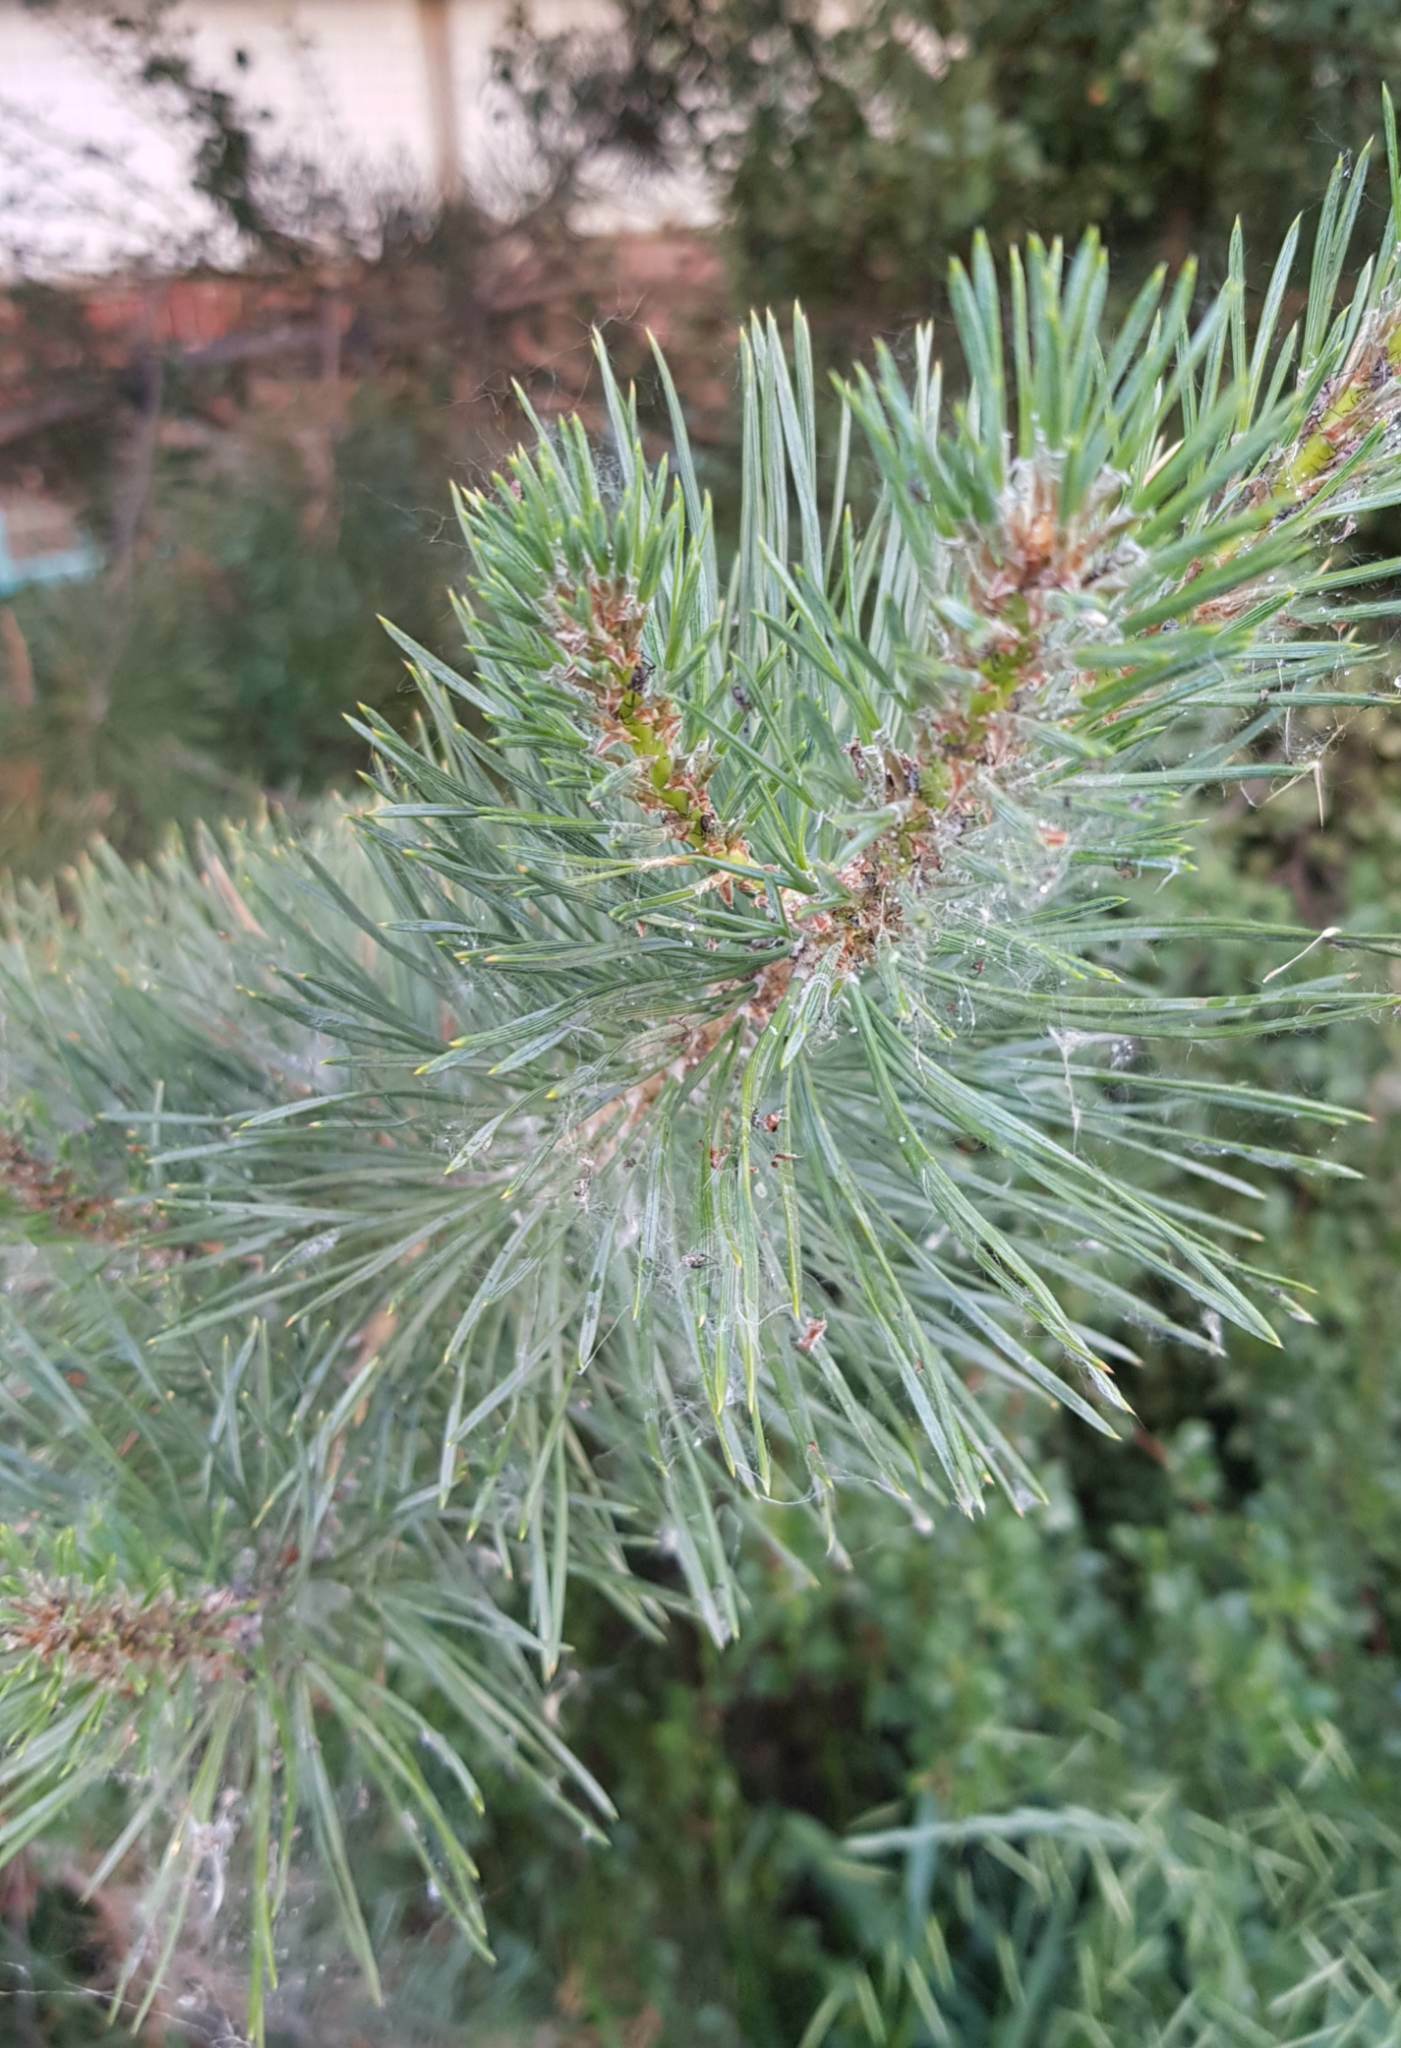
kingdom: Plantae
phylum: Tracheophyta
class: Pinopsida
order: Pinales
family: Pinaceae
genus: Pinus
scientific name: Pinus sylvestris
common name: Scots pine
